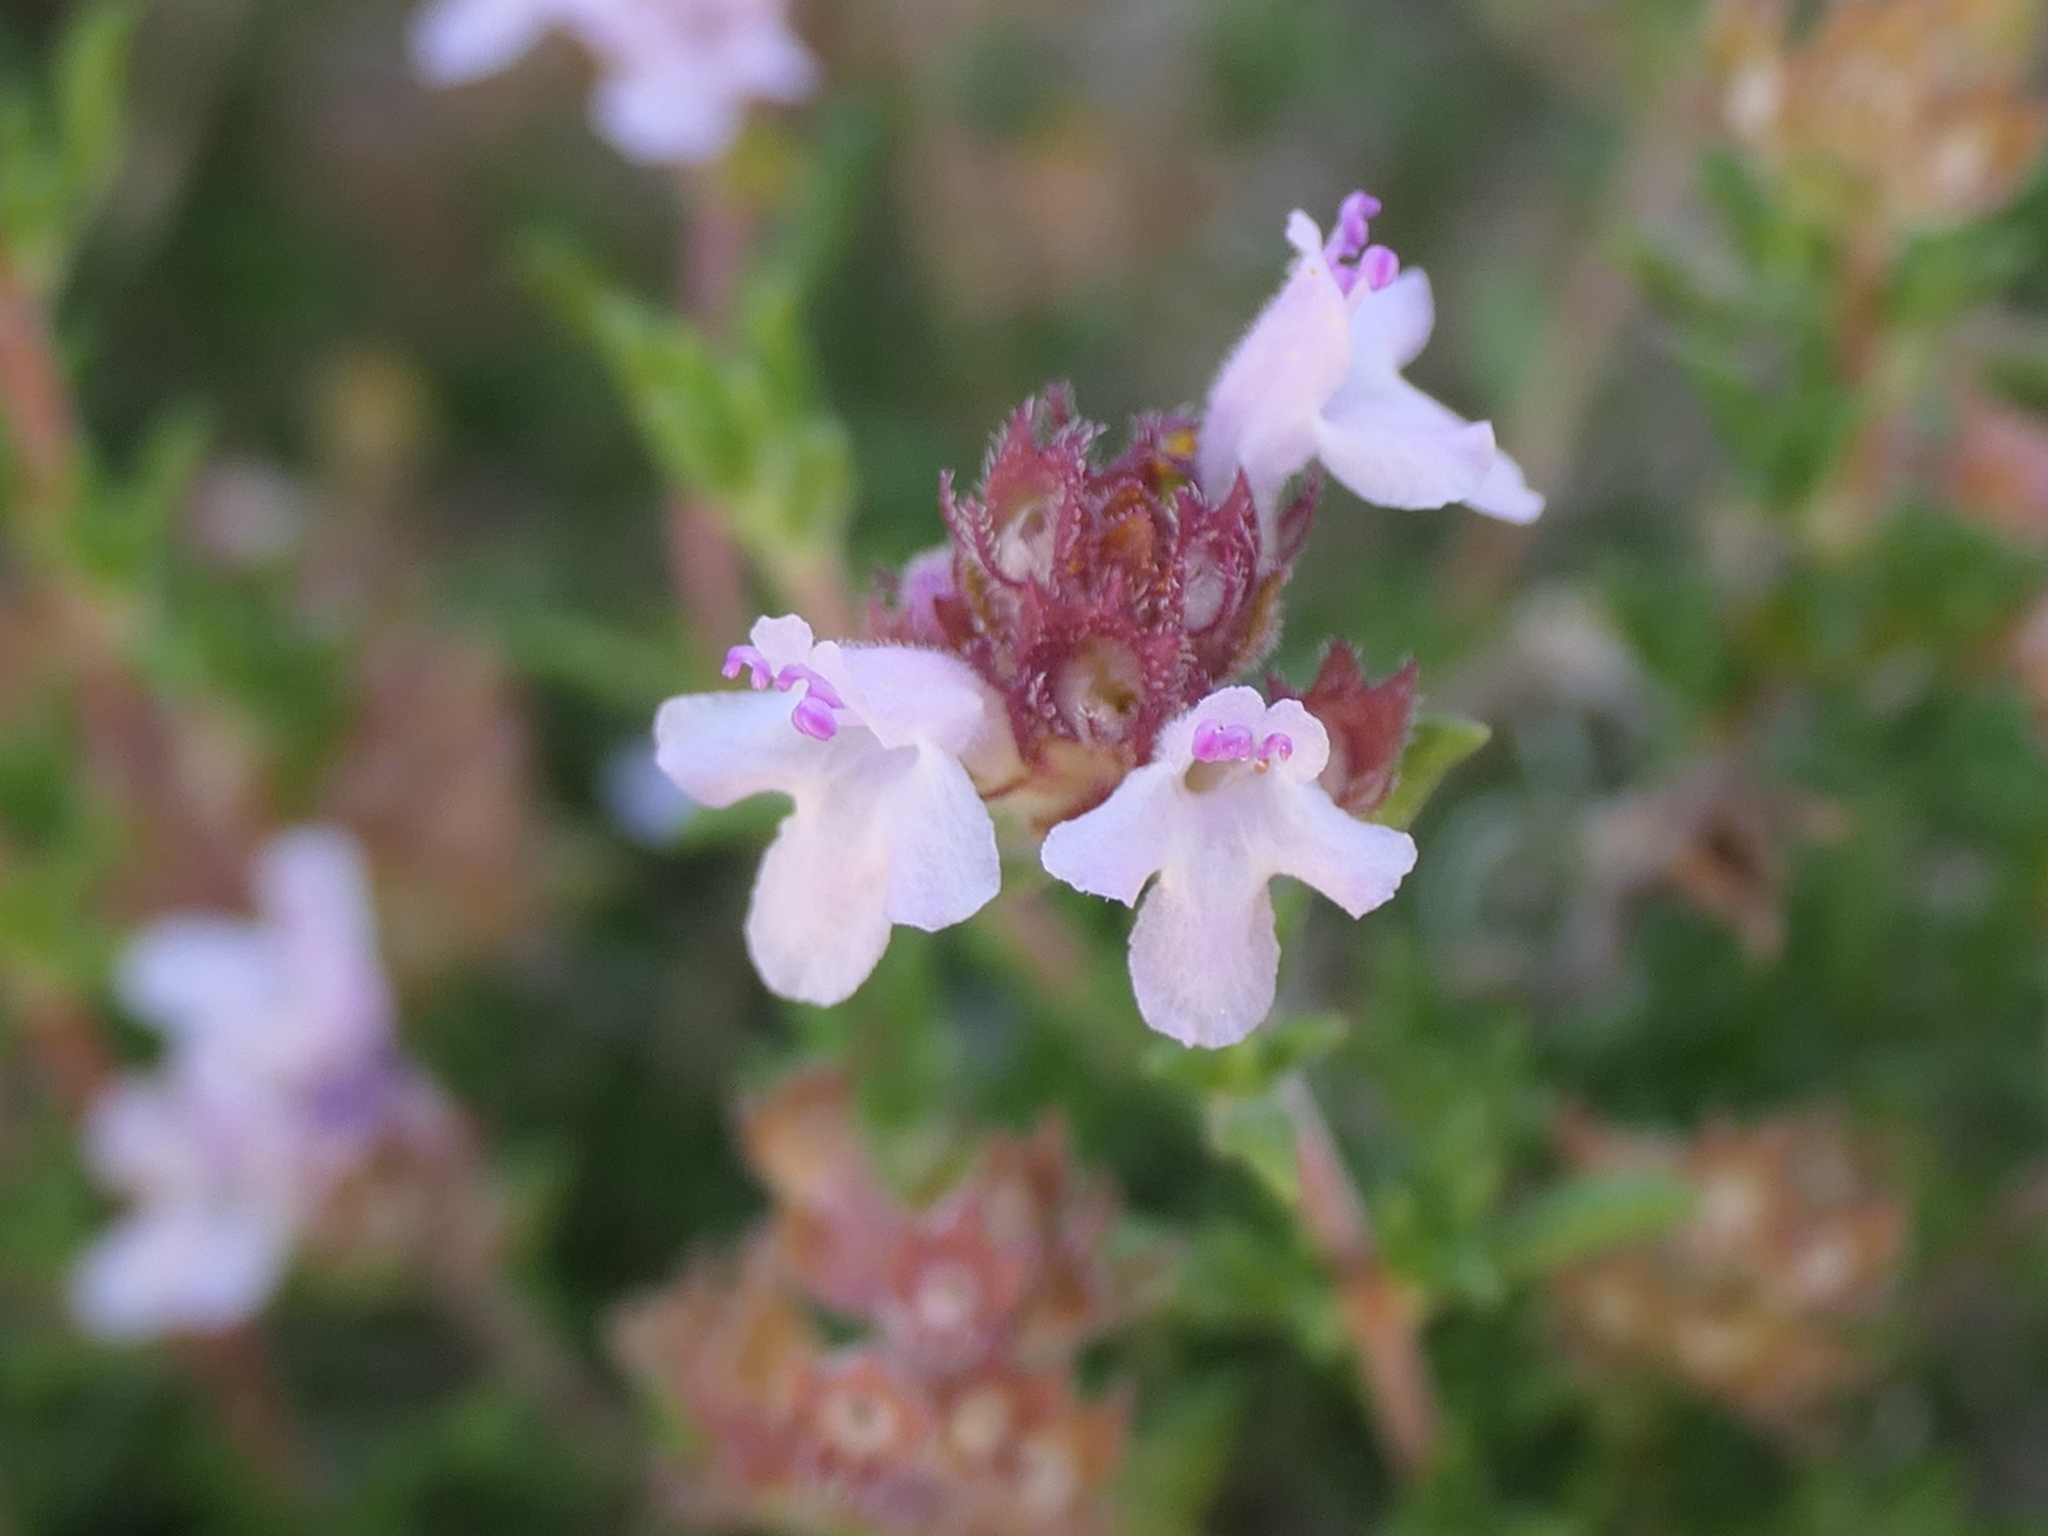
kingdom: Plantae
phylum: Tracheophyta
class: Magnoliopsida
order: Lamiales
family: Lamiaceae
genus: Thymus
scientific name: Thymus hyemalis
